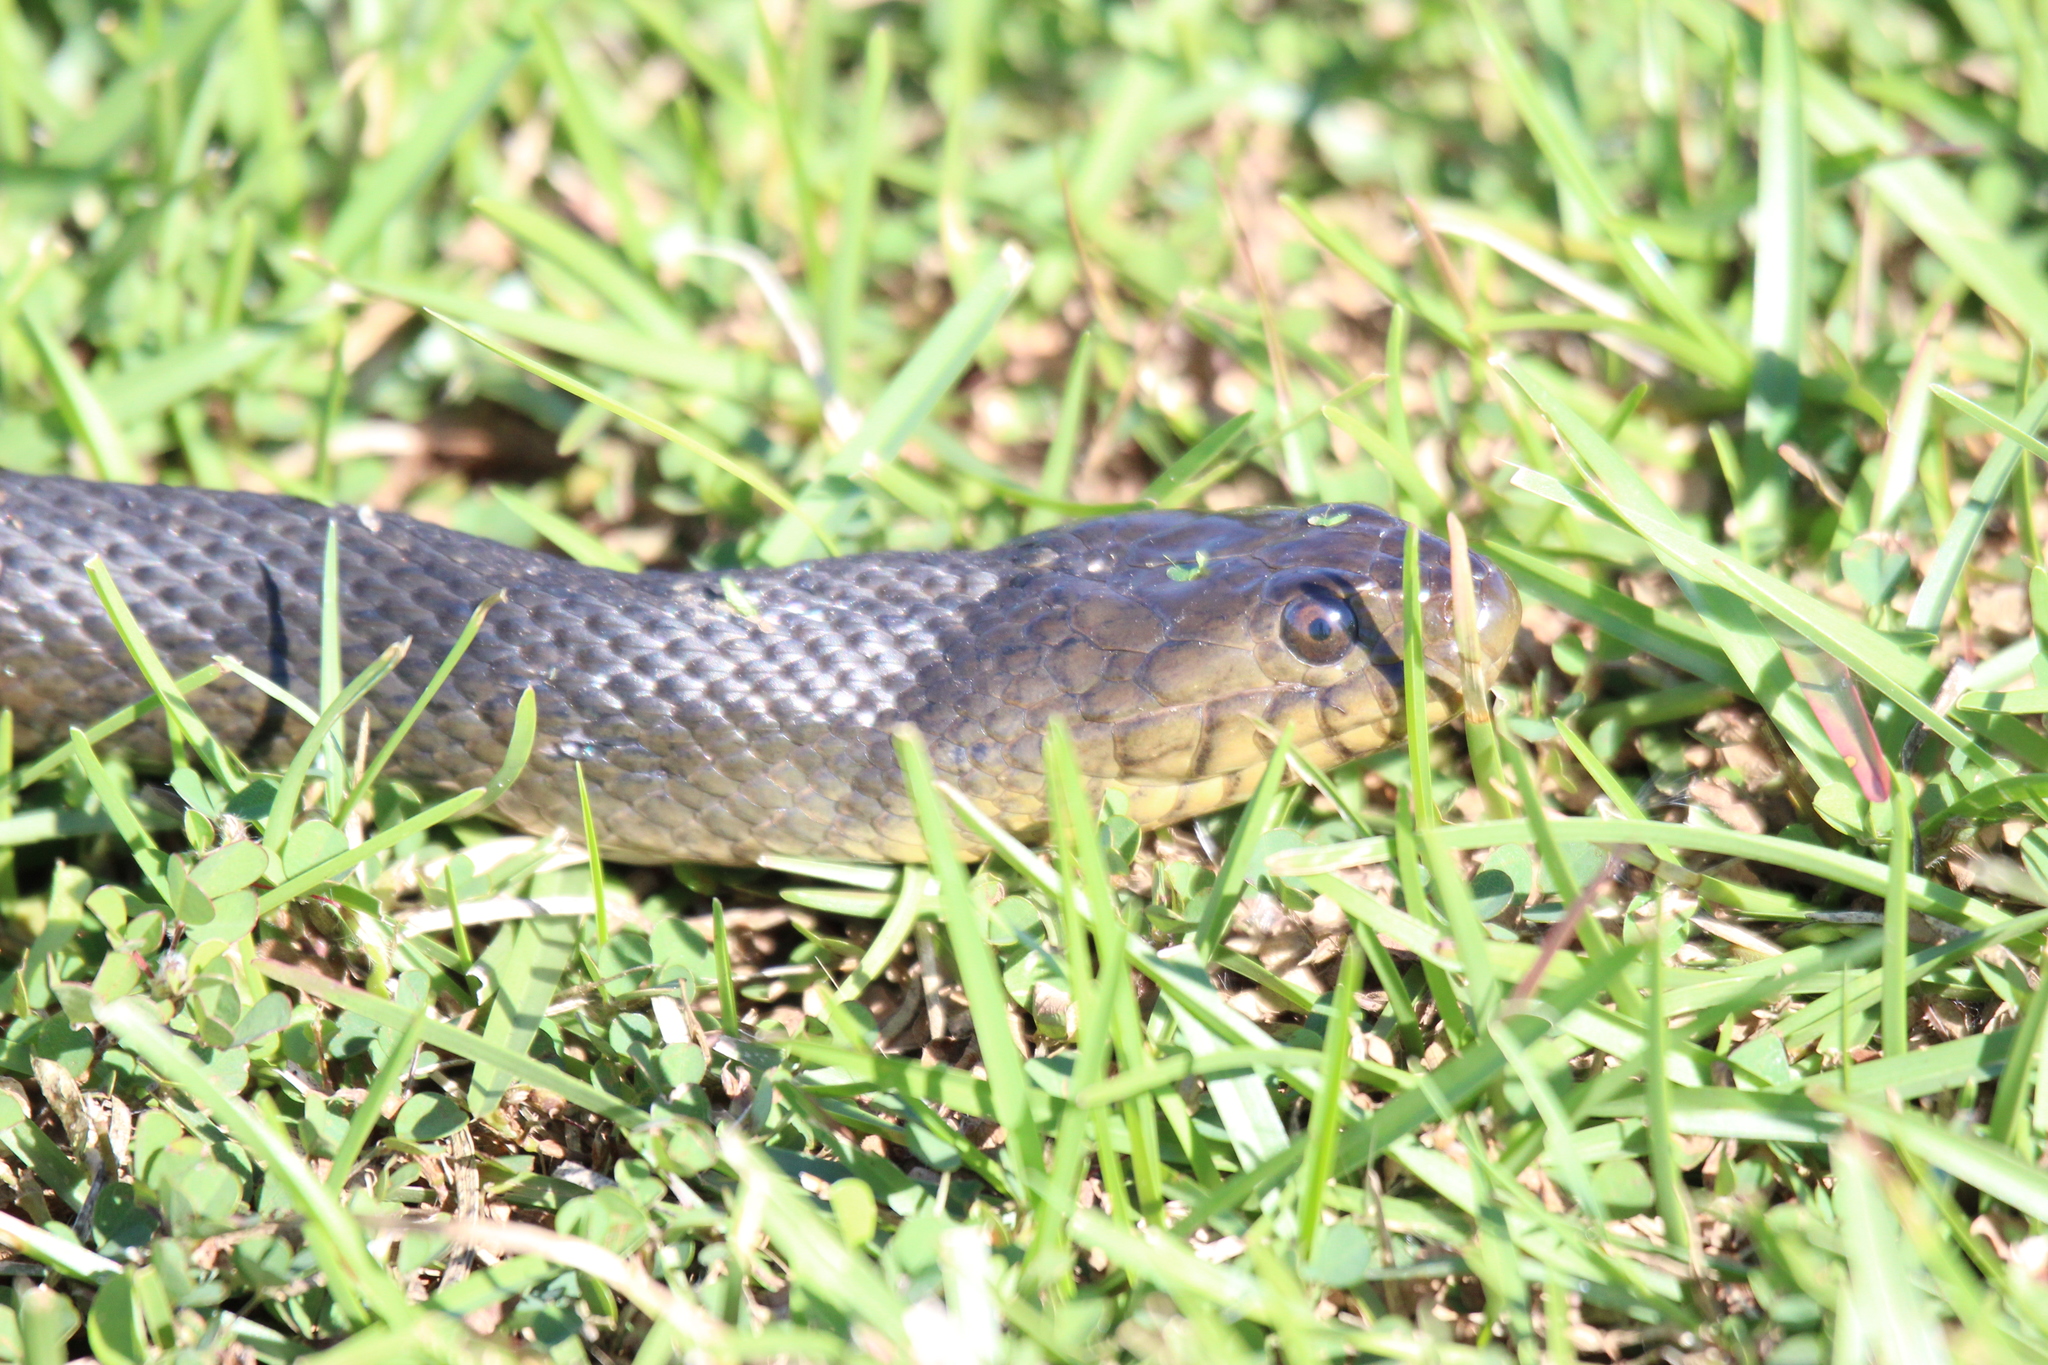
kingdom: Animalia
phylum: Chordata
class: Squamata
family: Colubridae
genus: Nerodia
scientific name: Nerodia floridana
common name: Florida green watersnake
